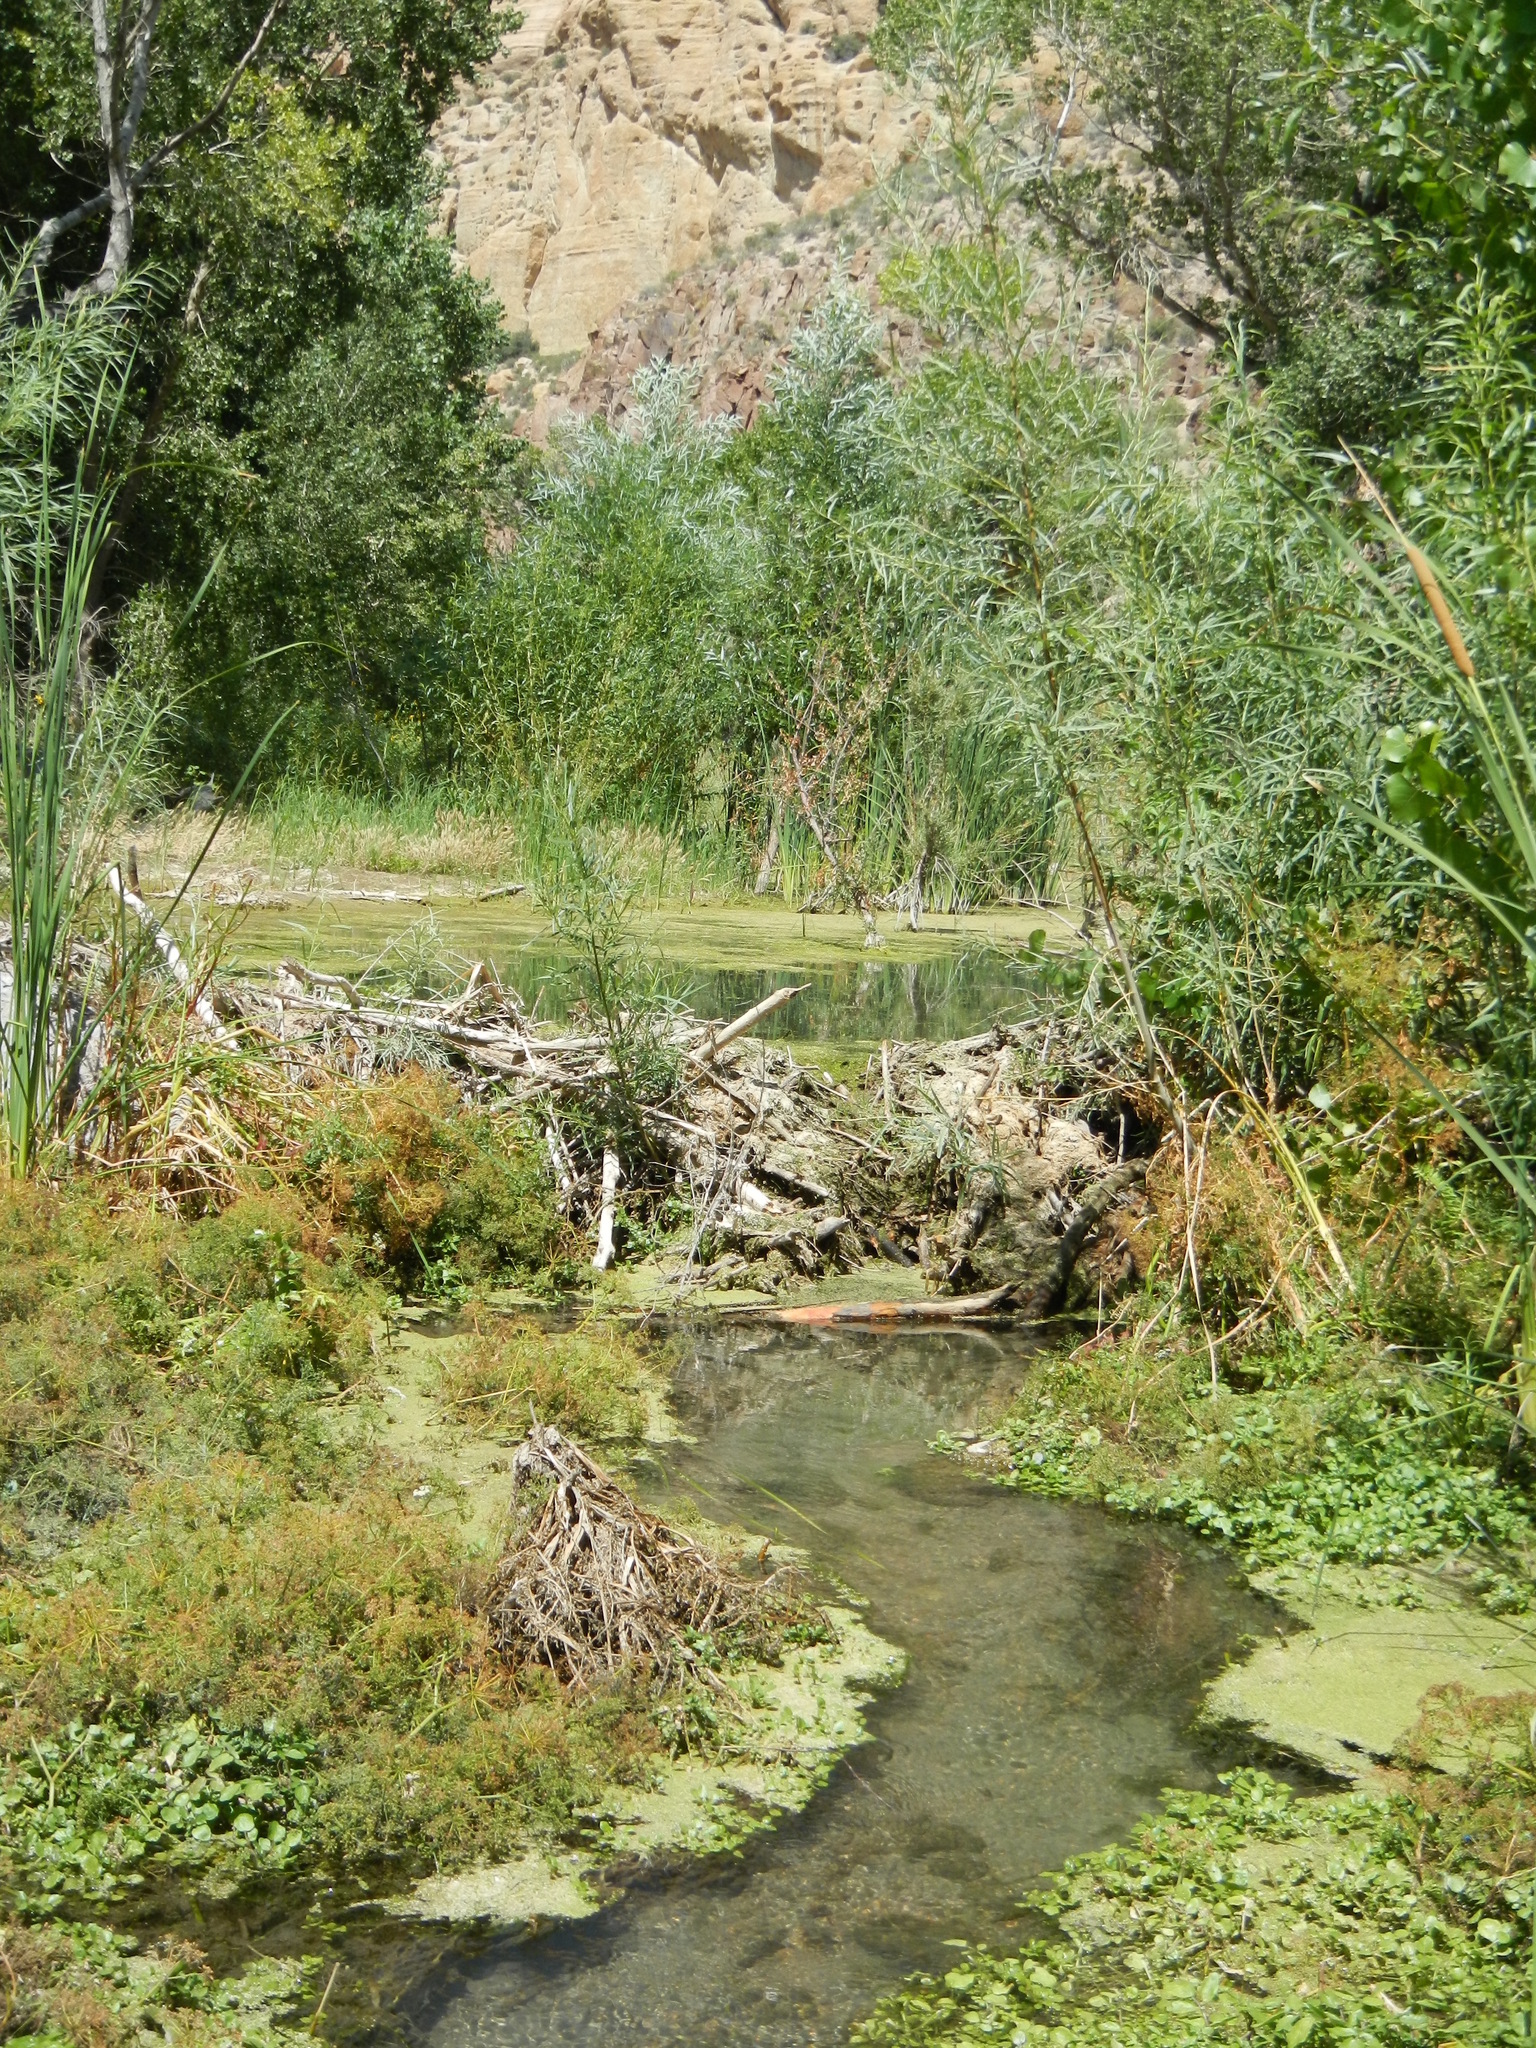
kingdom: Animalia
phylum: Chordata
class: Mammalia
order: Rodentia
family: Castoridae
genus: Castor
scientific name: Castor canadensis
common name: American beaver
